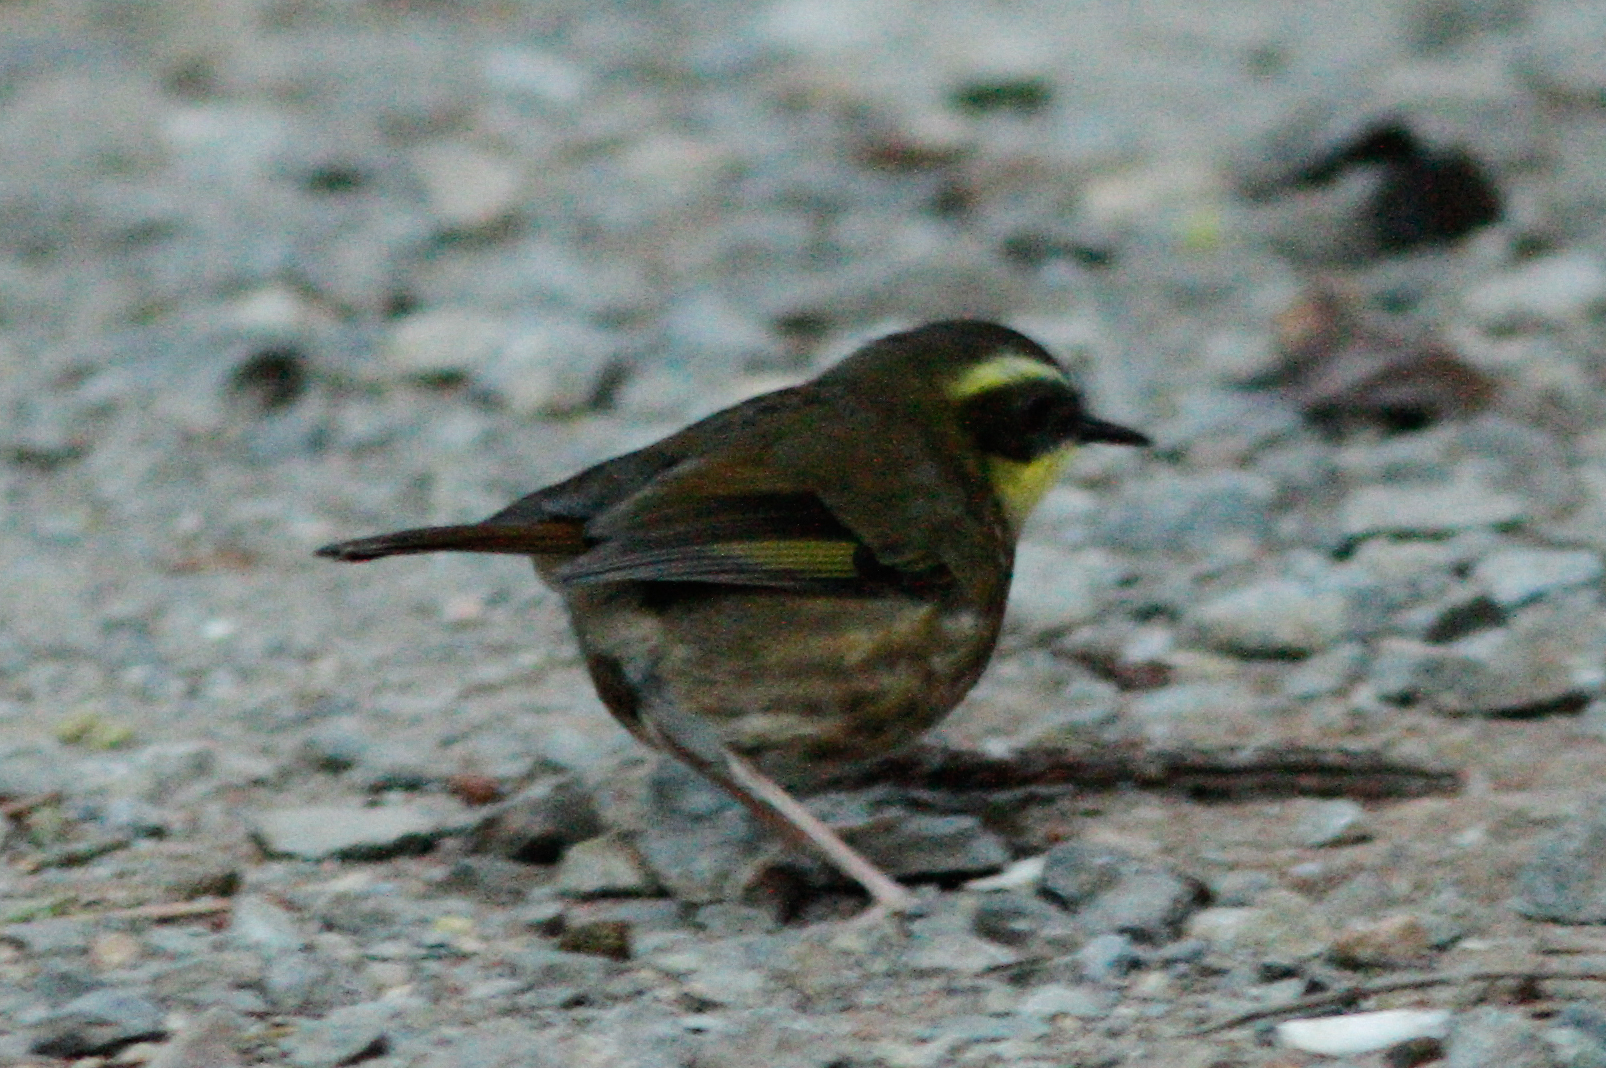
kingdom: Animalia
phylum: Chordata
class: Aves
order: Passeriformes
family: Acanthizidae
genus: Sericornis
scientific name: Sericornis citreogularis
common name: Yellow-throated scrubwren
